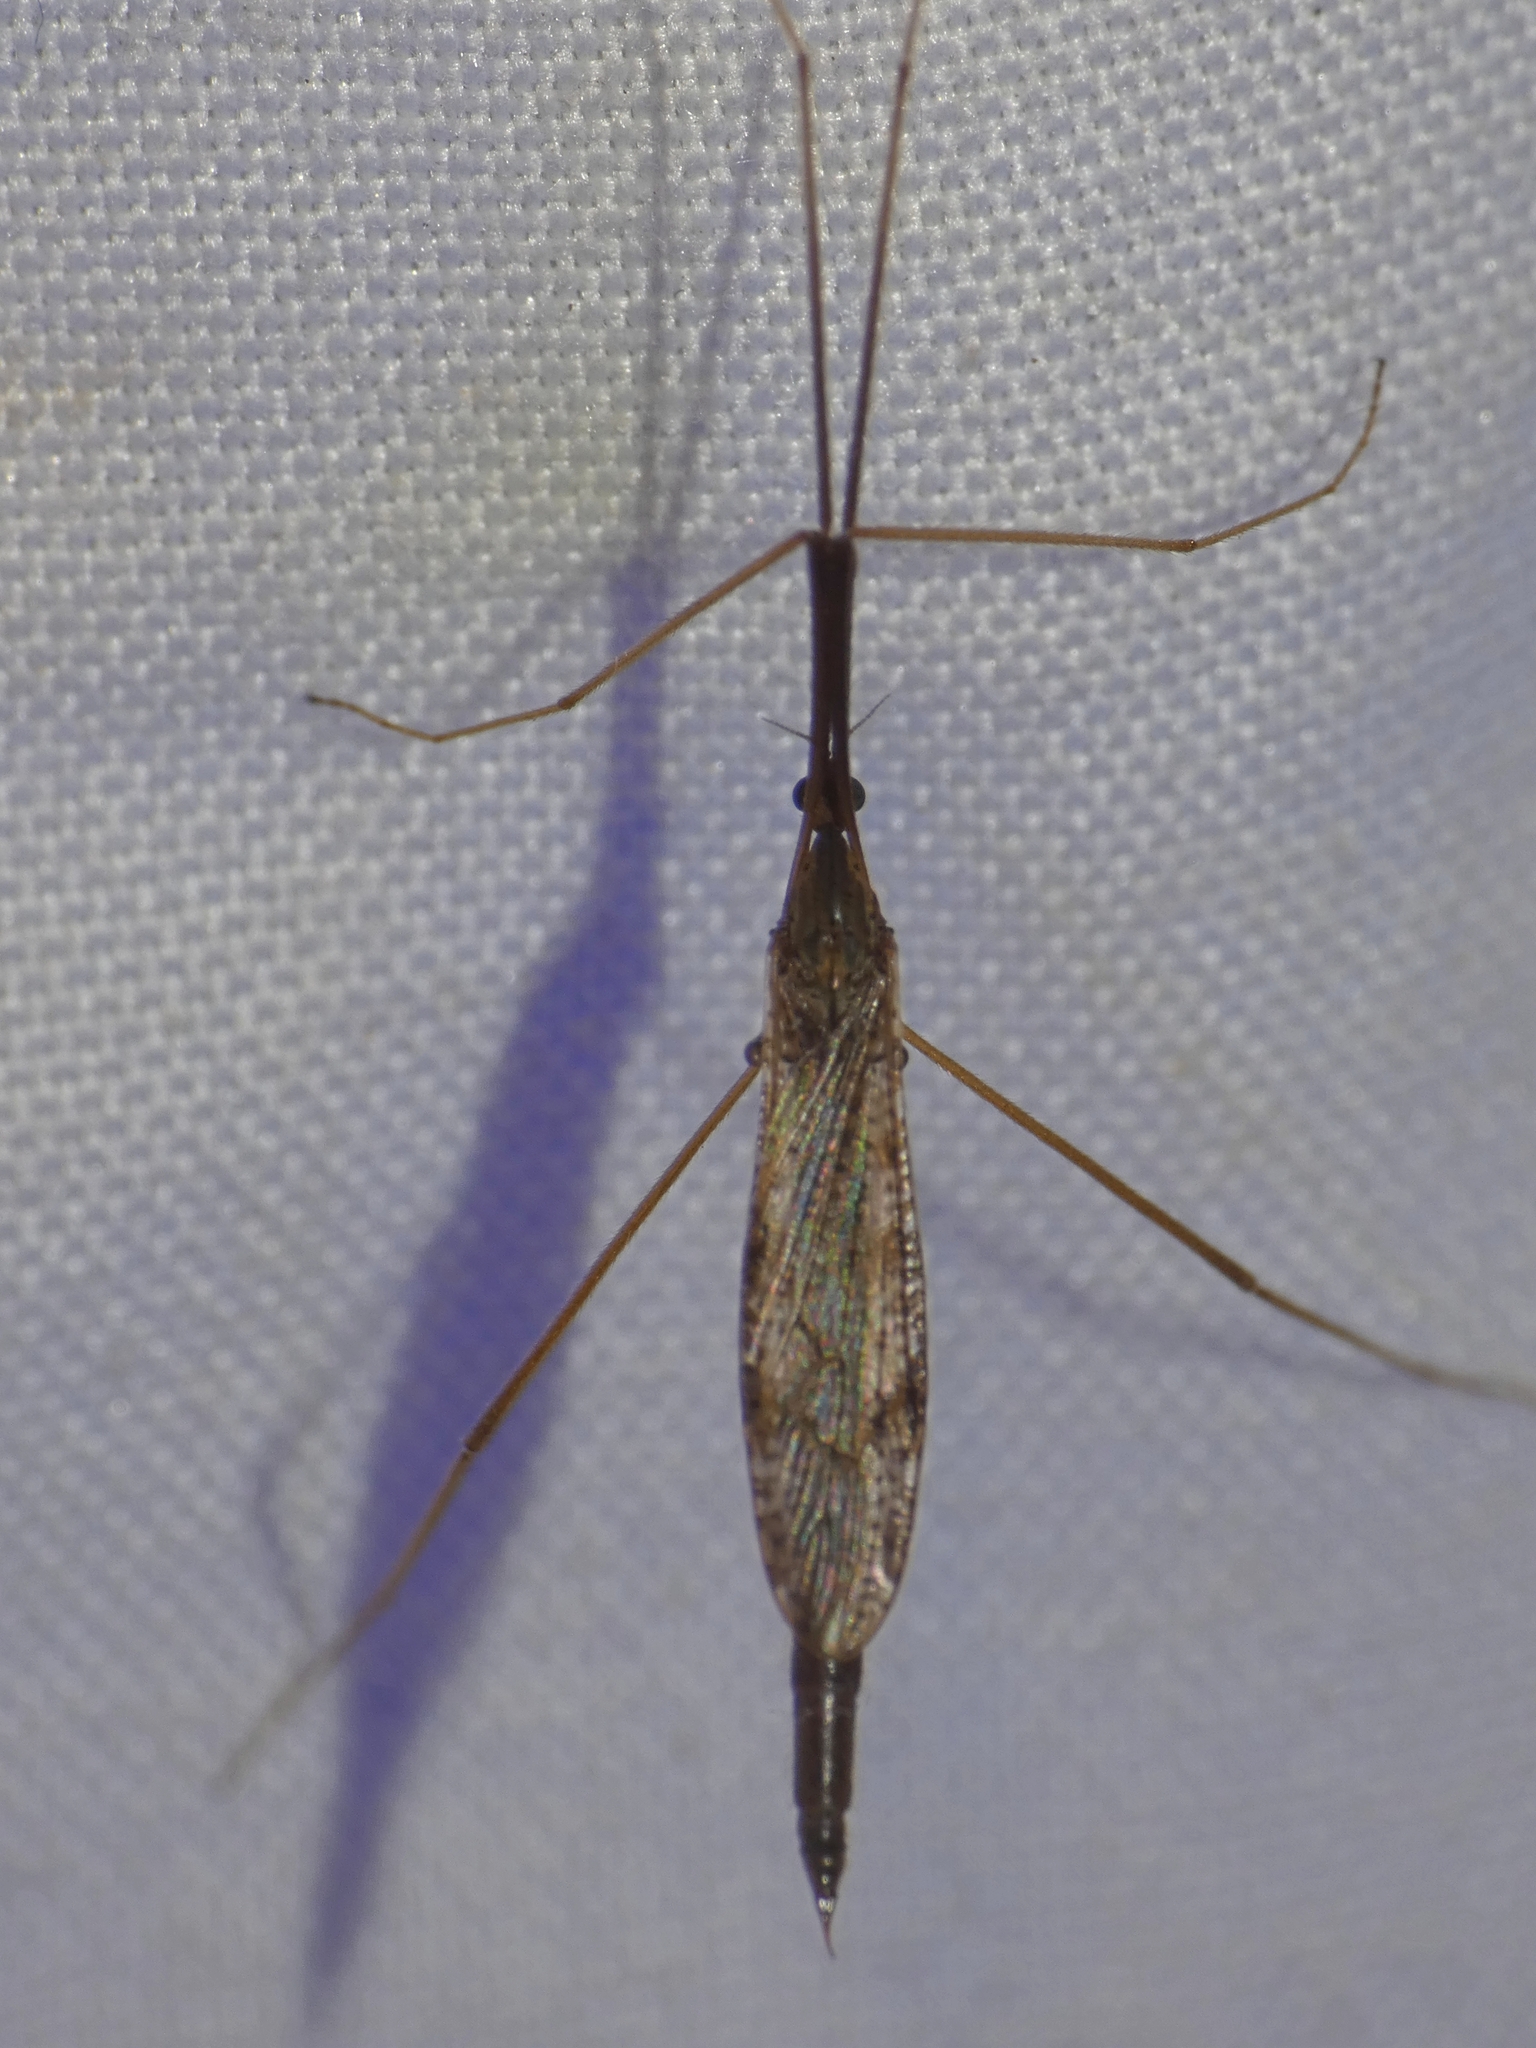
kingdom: Animalia
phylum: Arthropoda
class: Insecta
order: Diptera
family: Limoniidae
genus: Conosia
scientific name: Conosia irrorata
